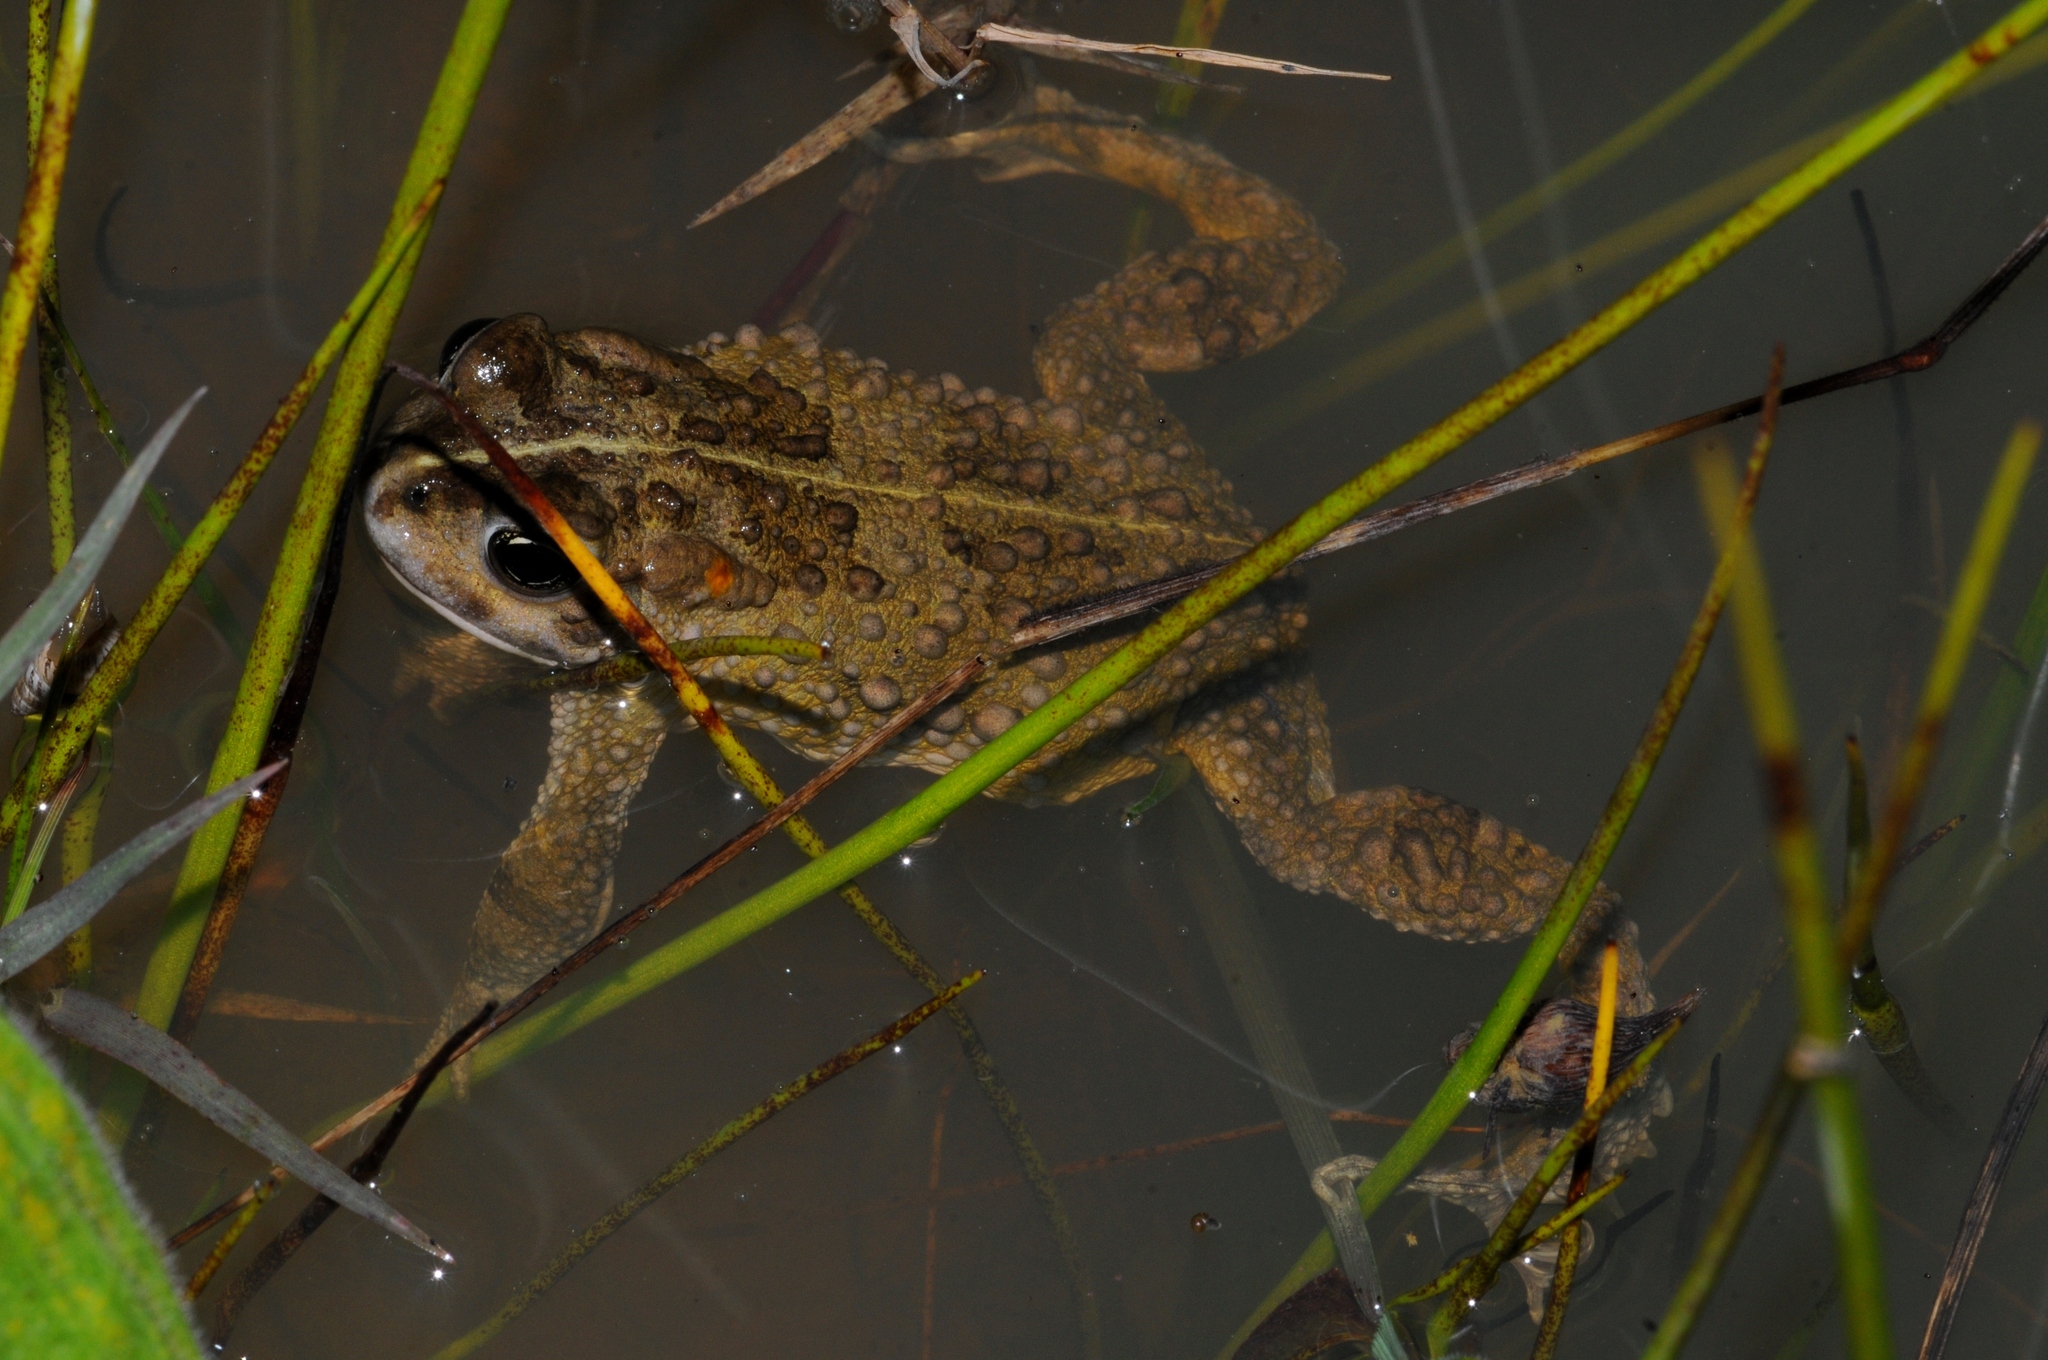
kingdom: Animalia
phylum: Chordata
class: Amphibia
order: Anura
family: Bufonidae
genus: Vandijkophrynus
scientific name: Vandijkophrynus angusticeps
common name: Sand toad
